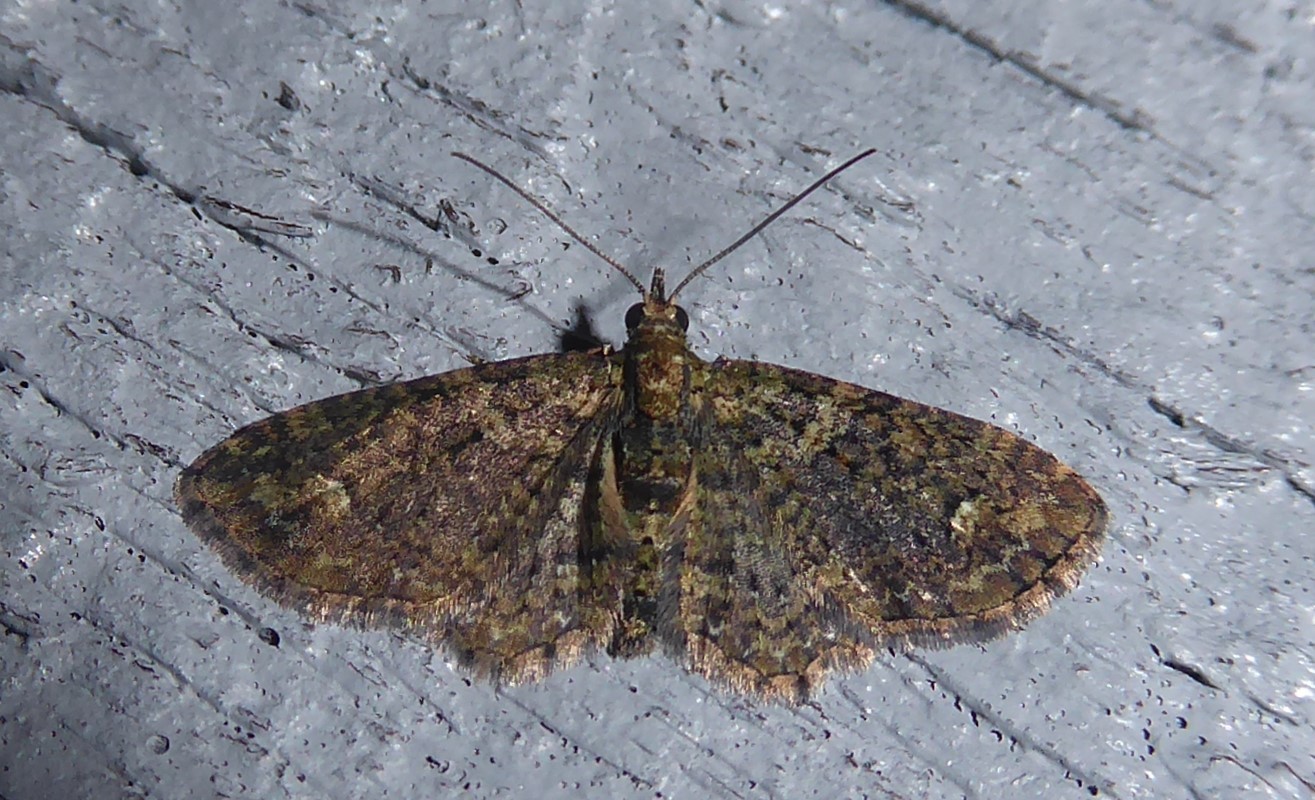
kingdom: Animalia
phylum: Arthropoda
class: Insecta
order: Lepidoptera
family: Geometridae
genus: Pasiphilodes
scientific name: Pasiphilodes testulata
